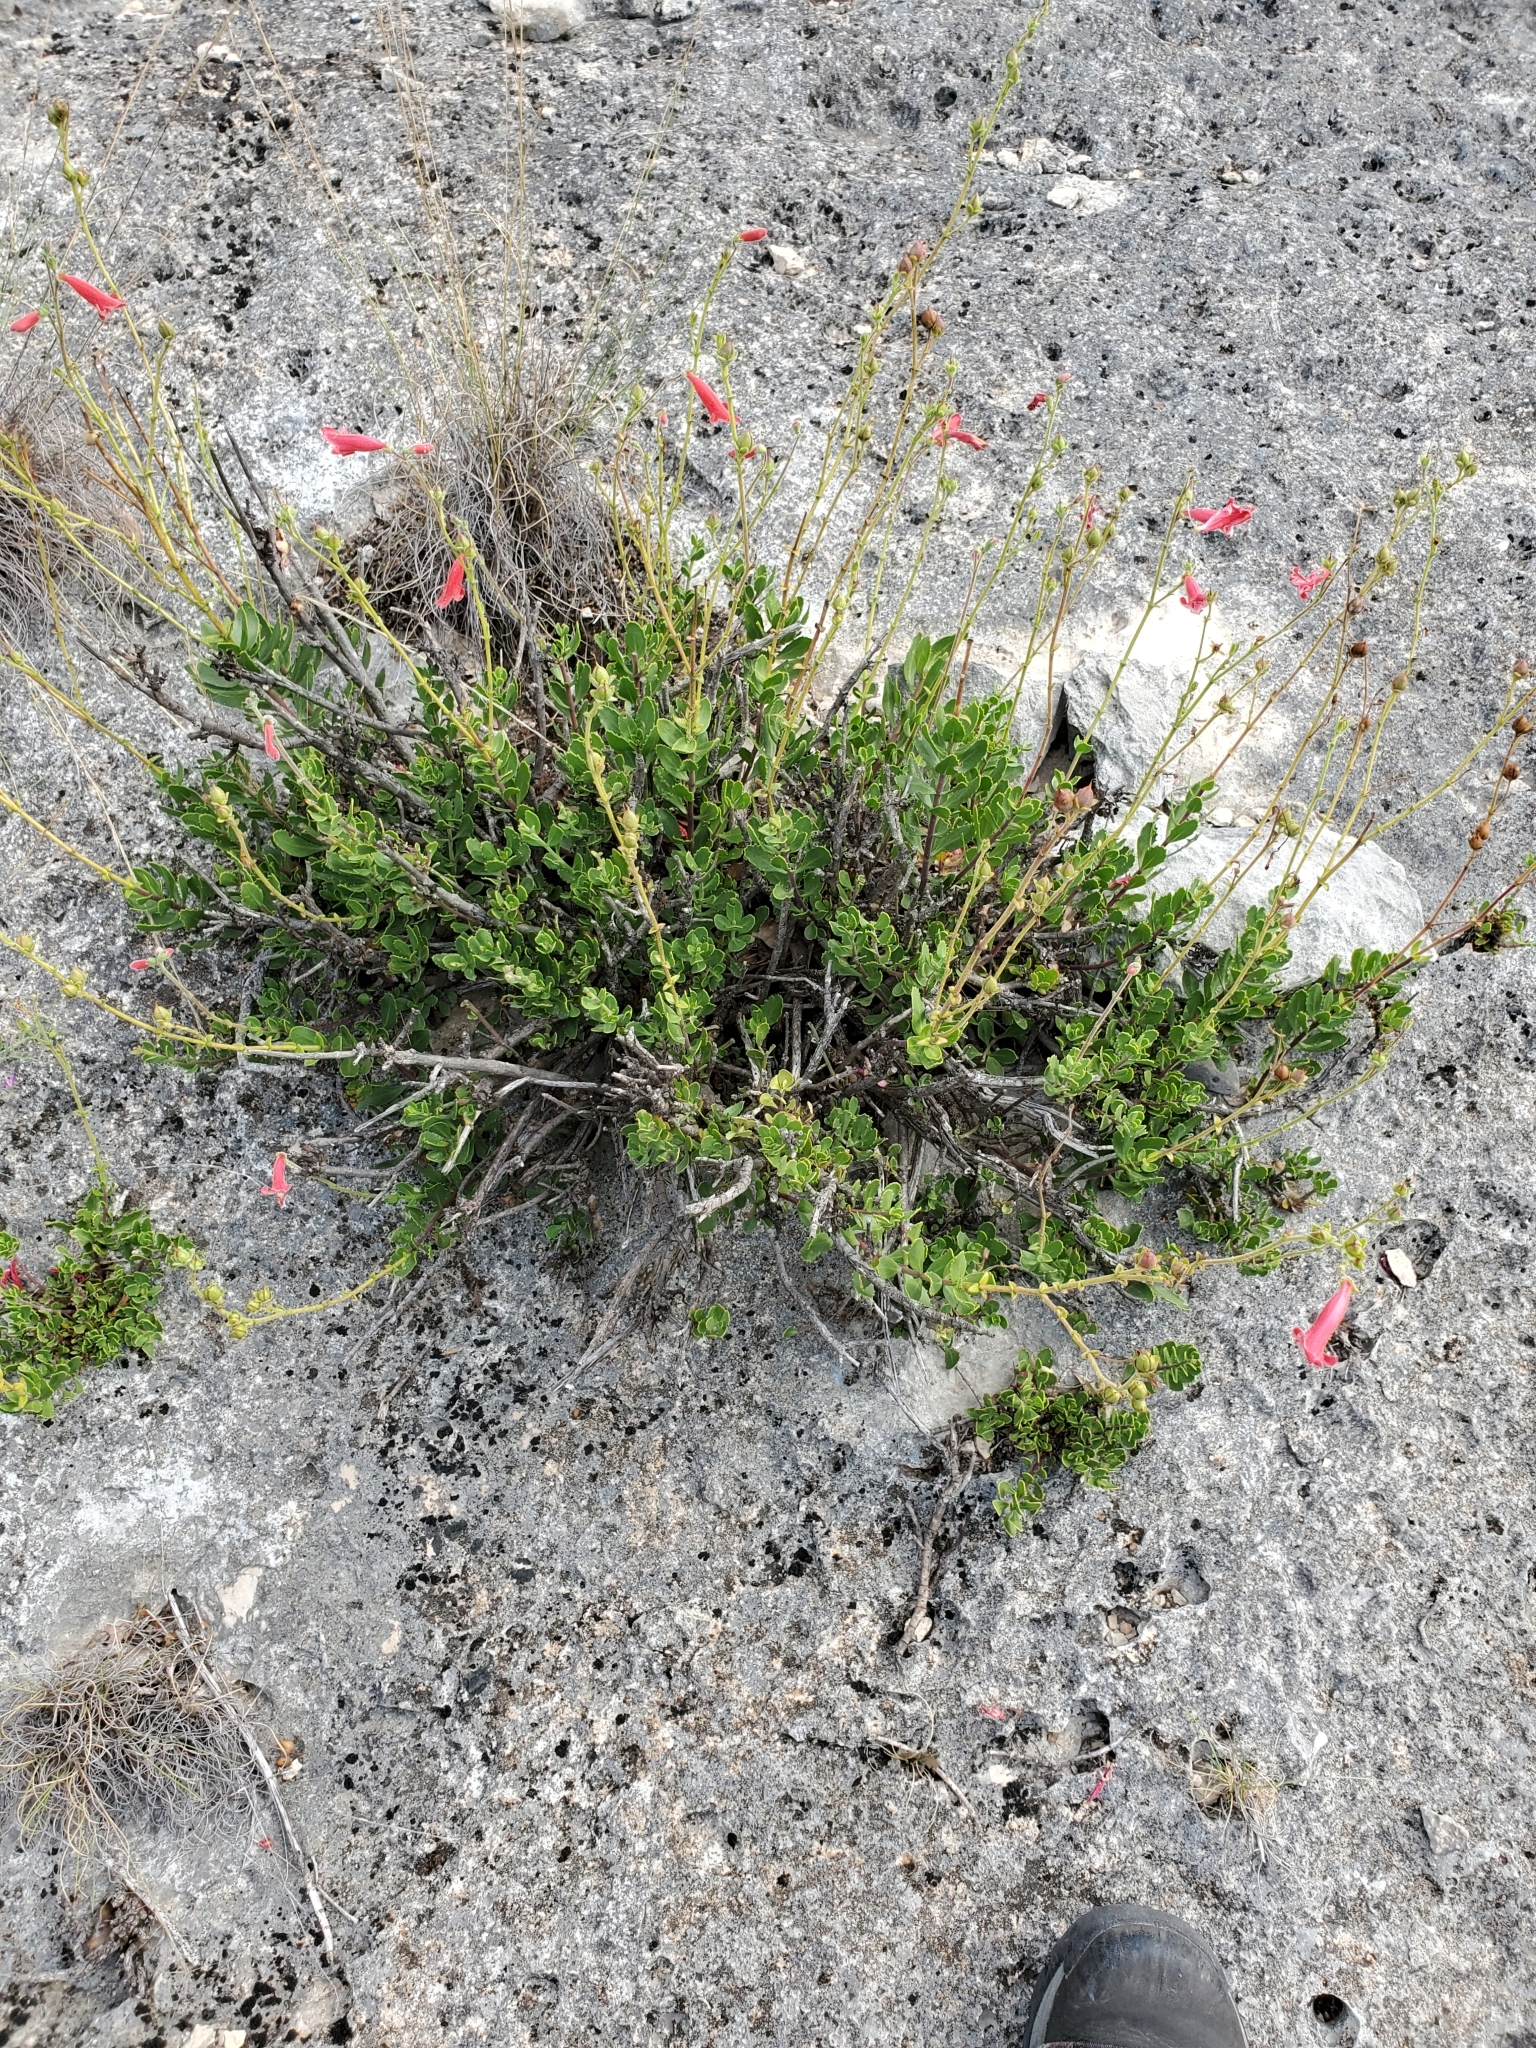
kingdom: Plantae
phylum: Tracheophyta
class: Magnoliopsida
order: Lamiales
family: Plantaginaceae
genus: Penstemon
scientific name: Penstemon baccharifolius
